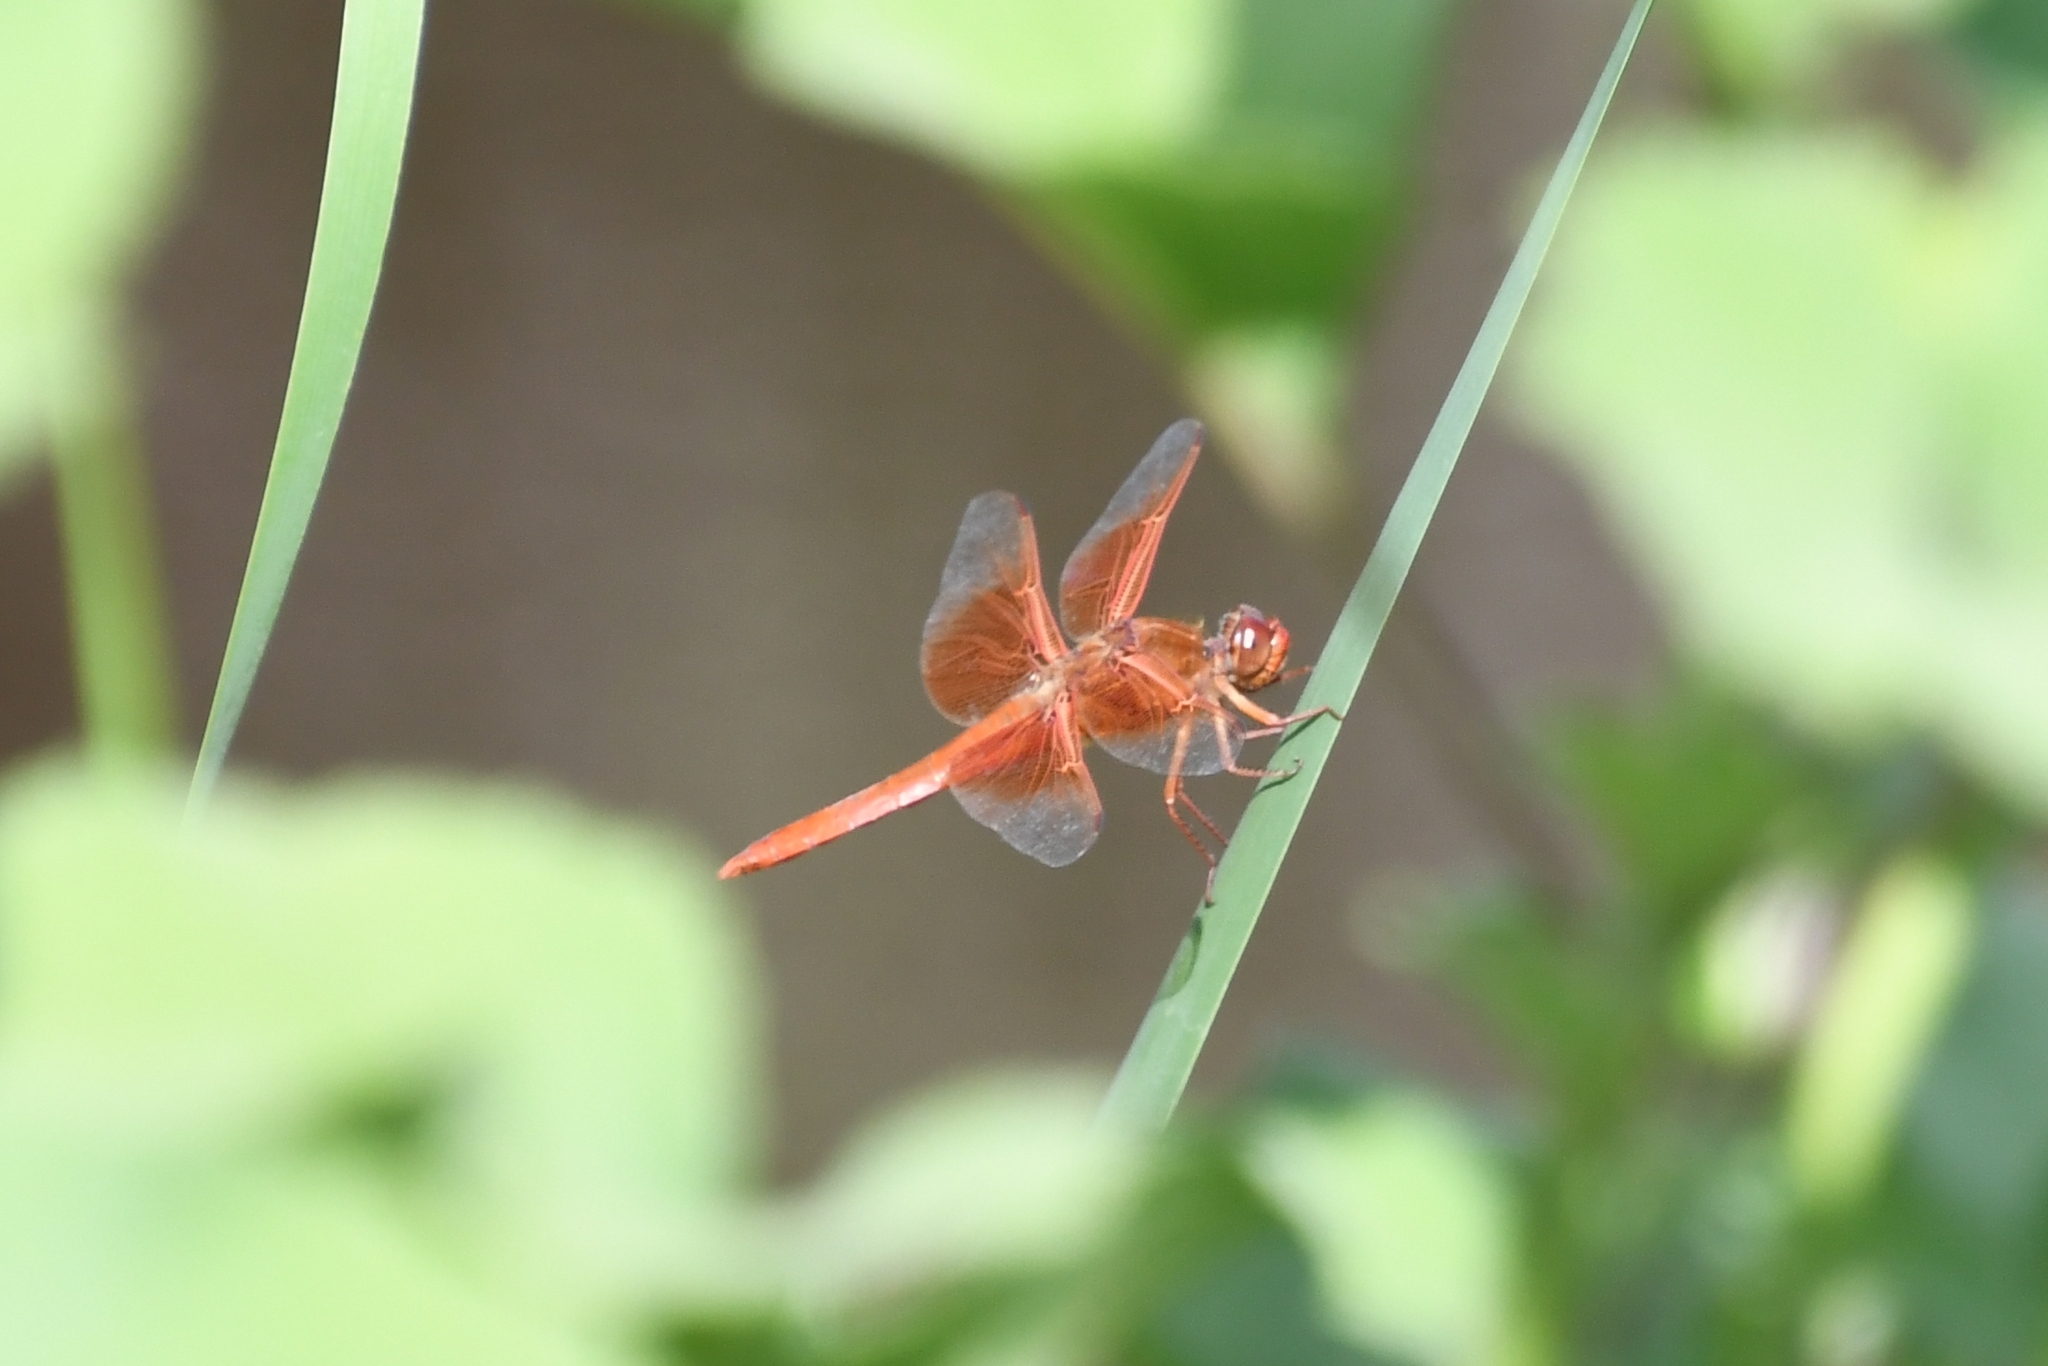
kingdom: Animalia
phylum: Arthropoda
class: Insecta
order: Odonata
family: Libellulidae
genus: Libellula
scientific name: Libellula saturata
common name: Flame skimmer
